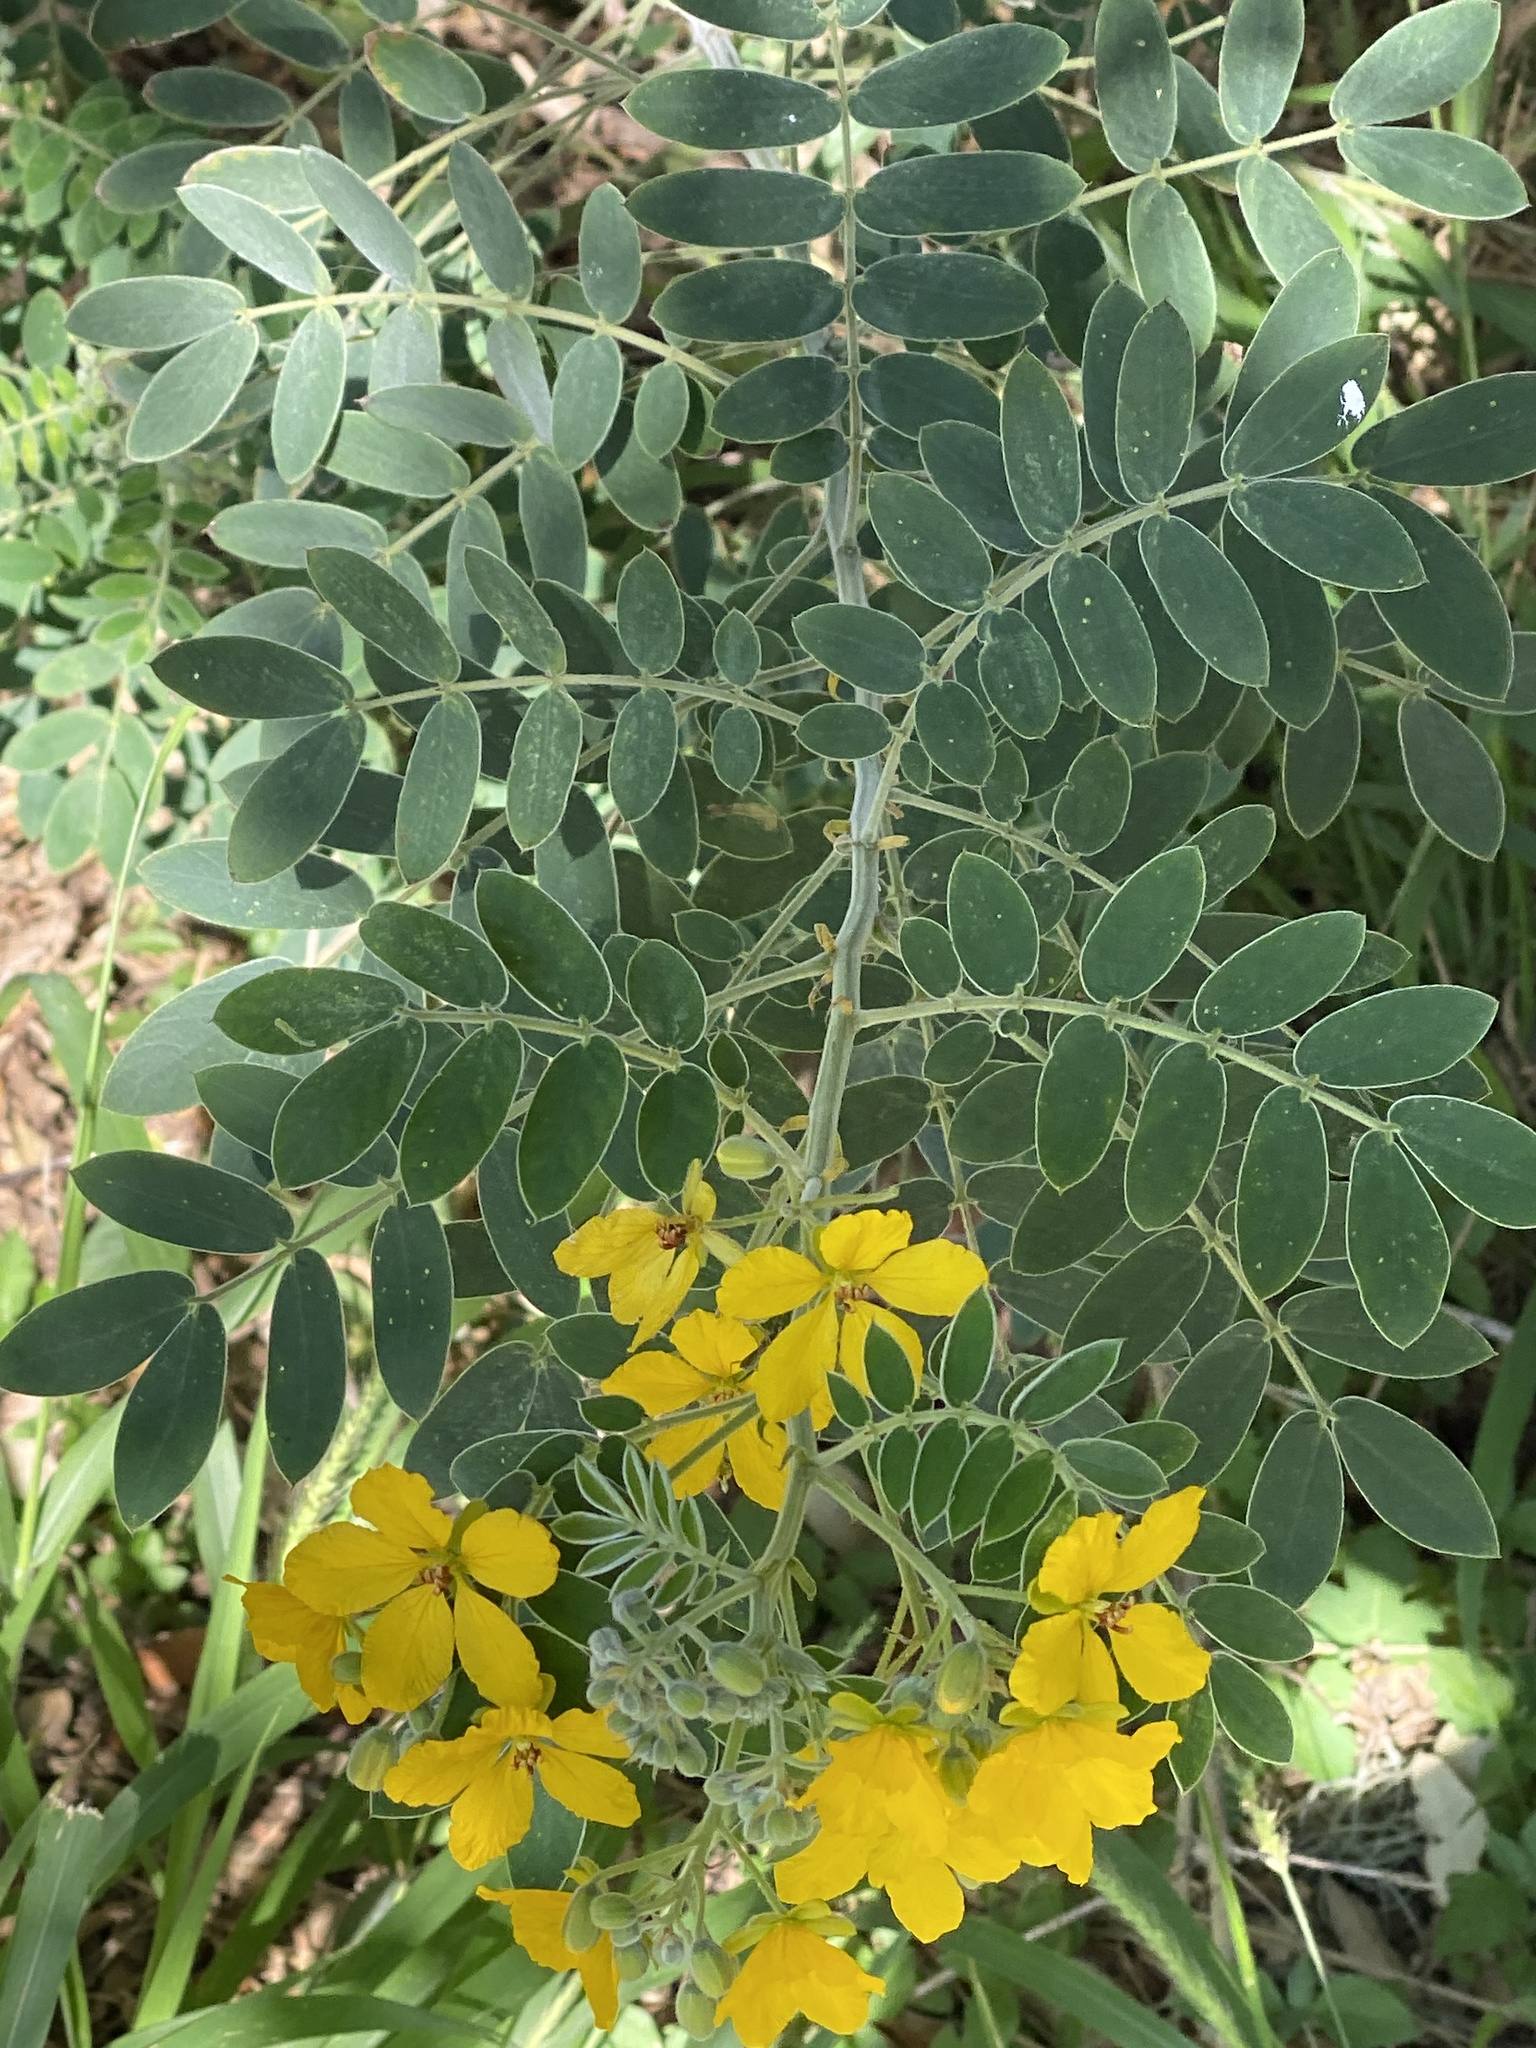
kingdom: Plantae
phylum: Tracheophyta
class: Magnoliopsida
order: Fabales
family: Fabaceae
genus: Senna
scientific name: Senna lindheimeriana
